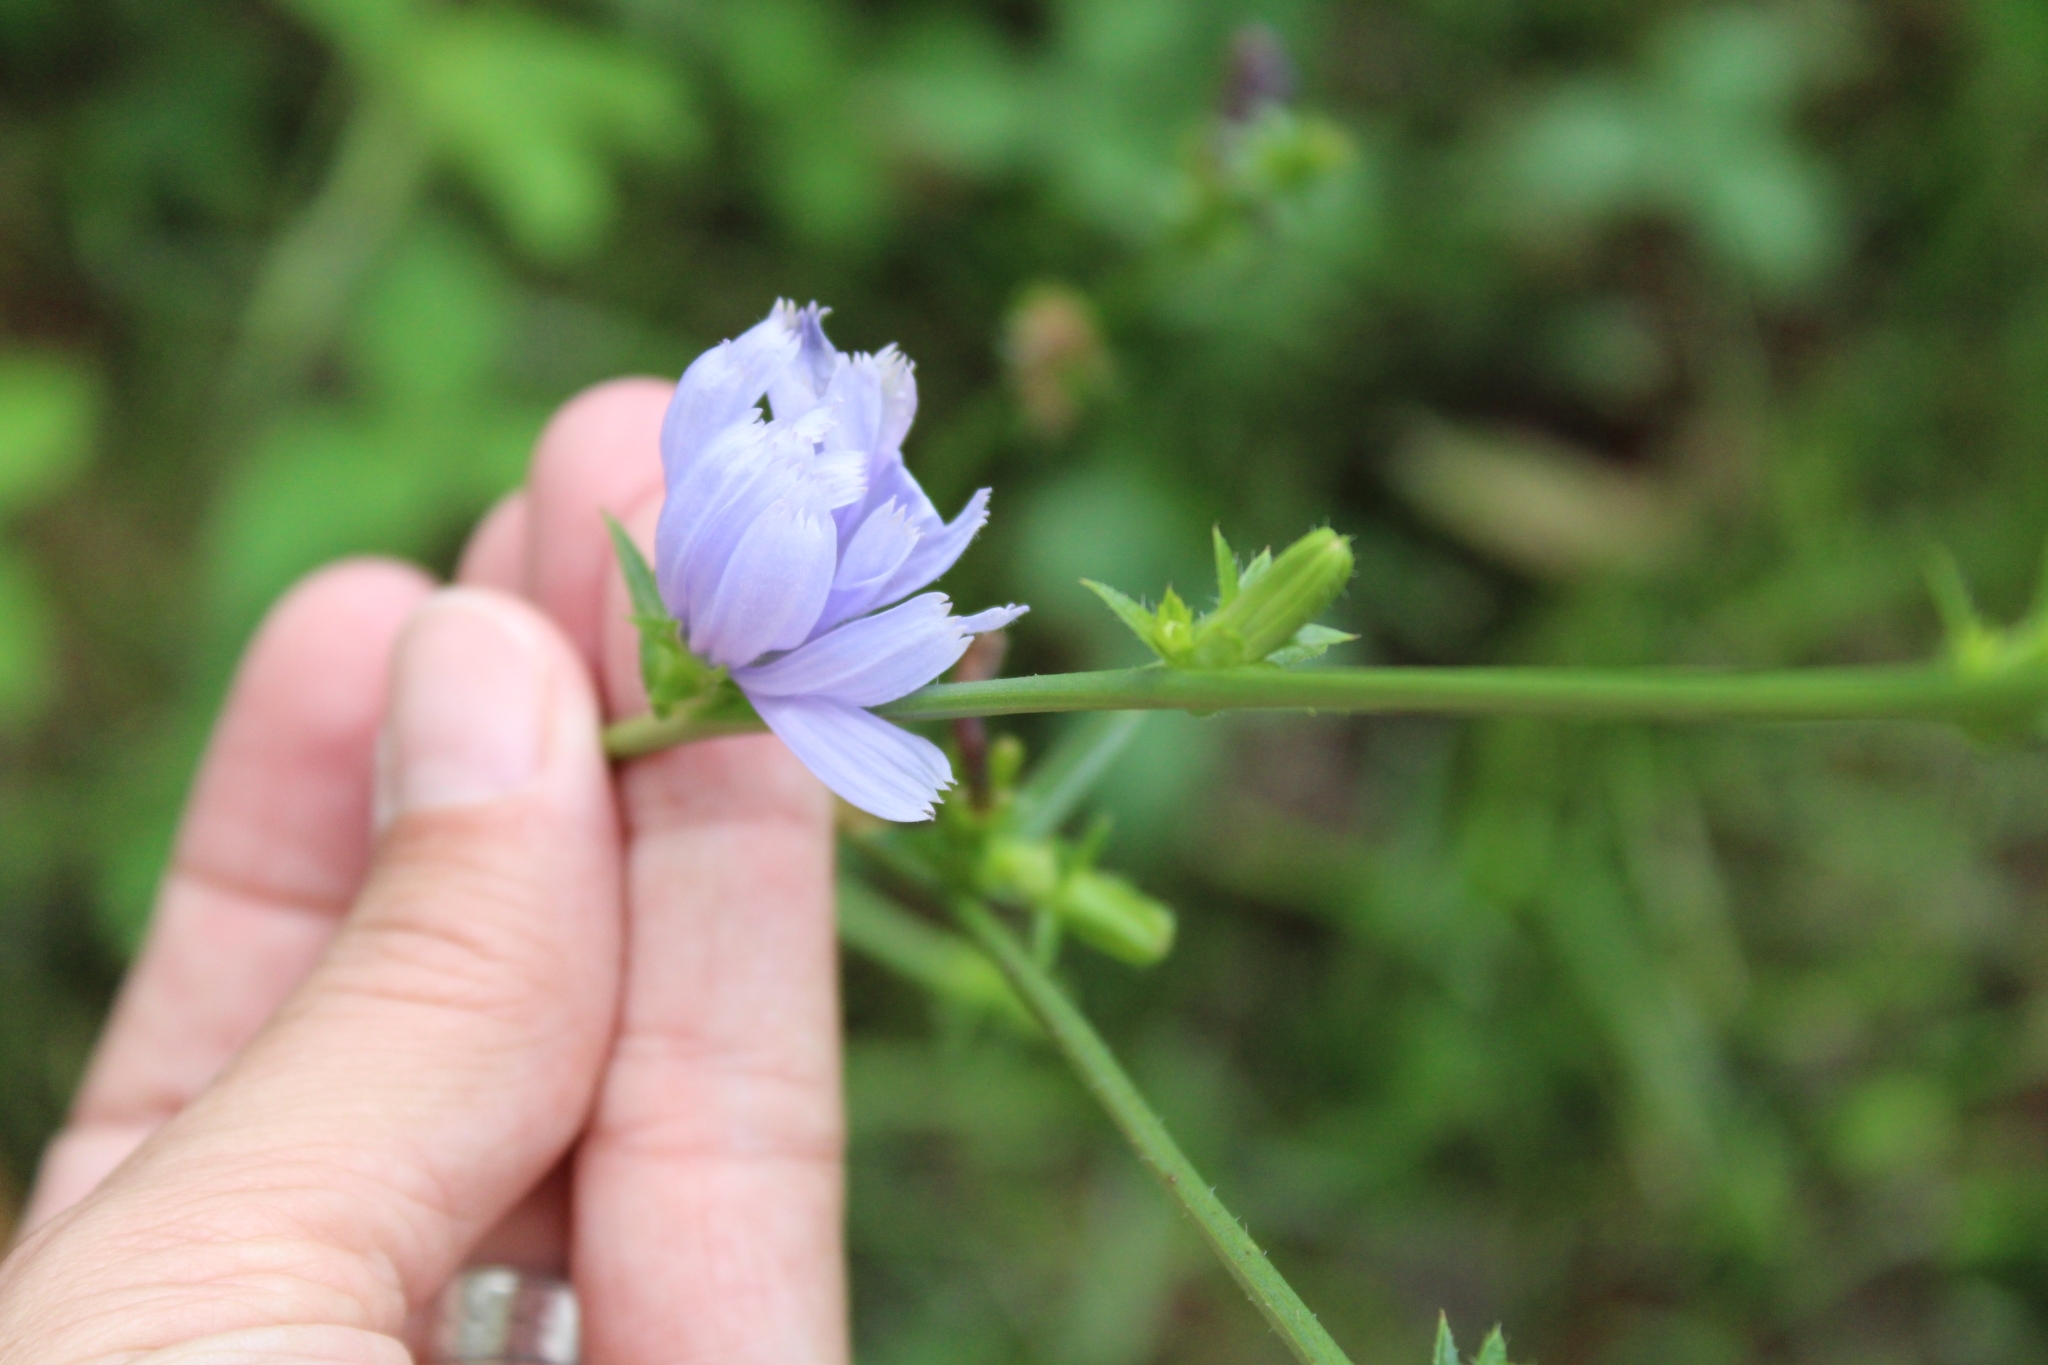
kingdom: Plantae
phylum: Tracheophyta
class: Magnoliopsida
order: Asterales
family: Asteraceae
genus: Cichorium
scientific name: Cichorium intybus
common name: Chicory
